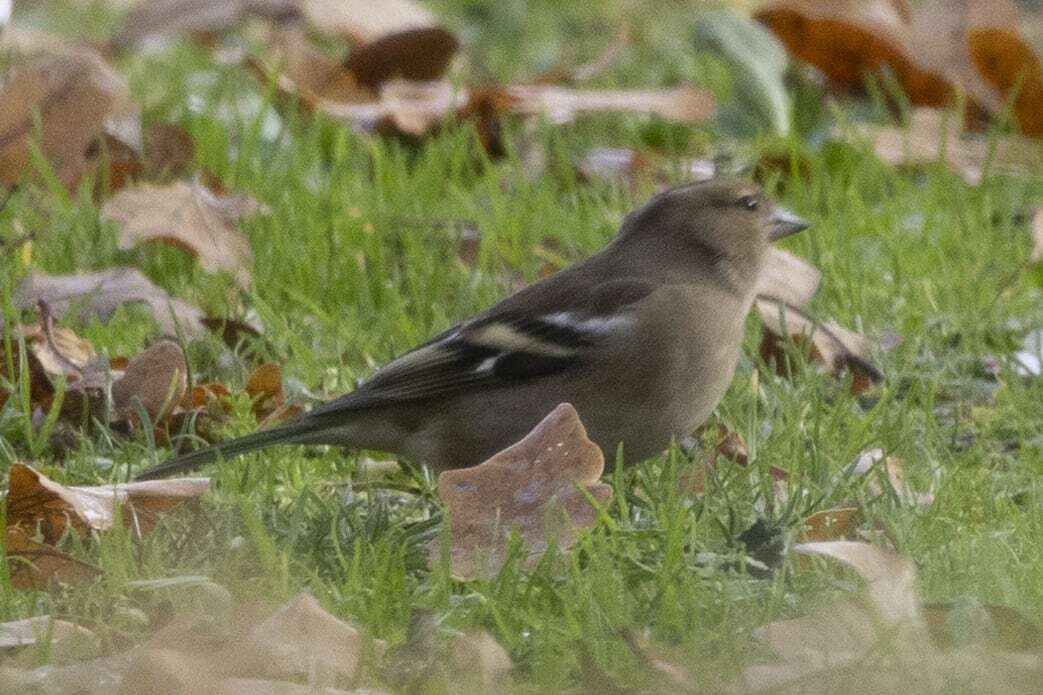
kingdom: Animalia
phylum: Chordata
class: Aves
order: Passeriformes
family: Fringillidae
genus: Fringilla
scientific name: Fringilla coelebs
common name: Common chaffinch
